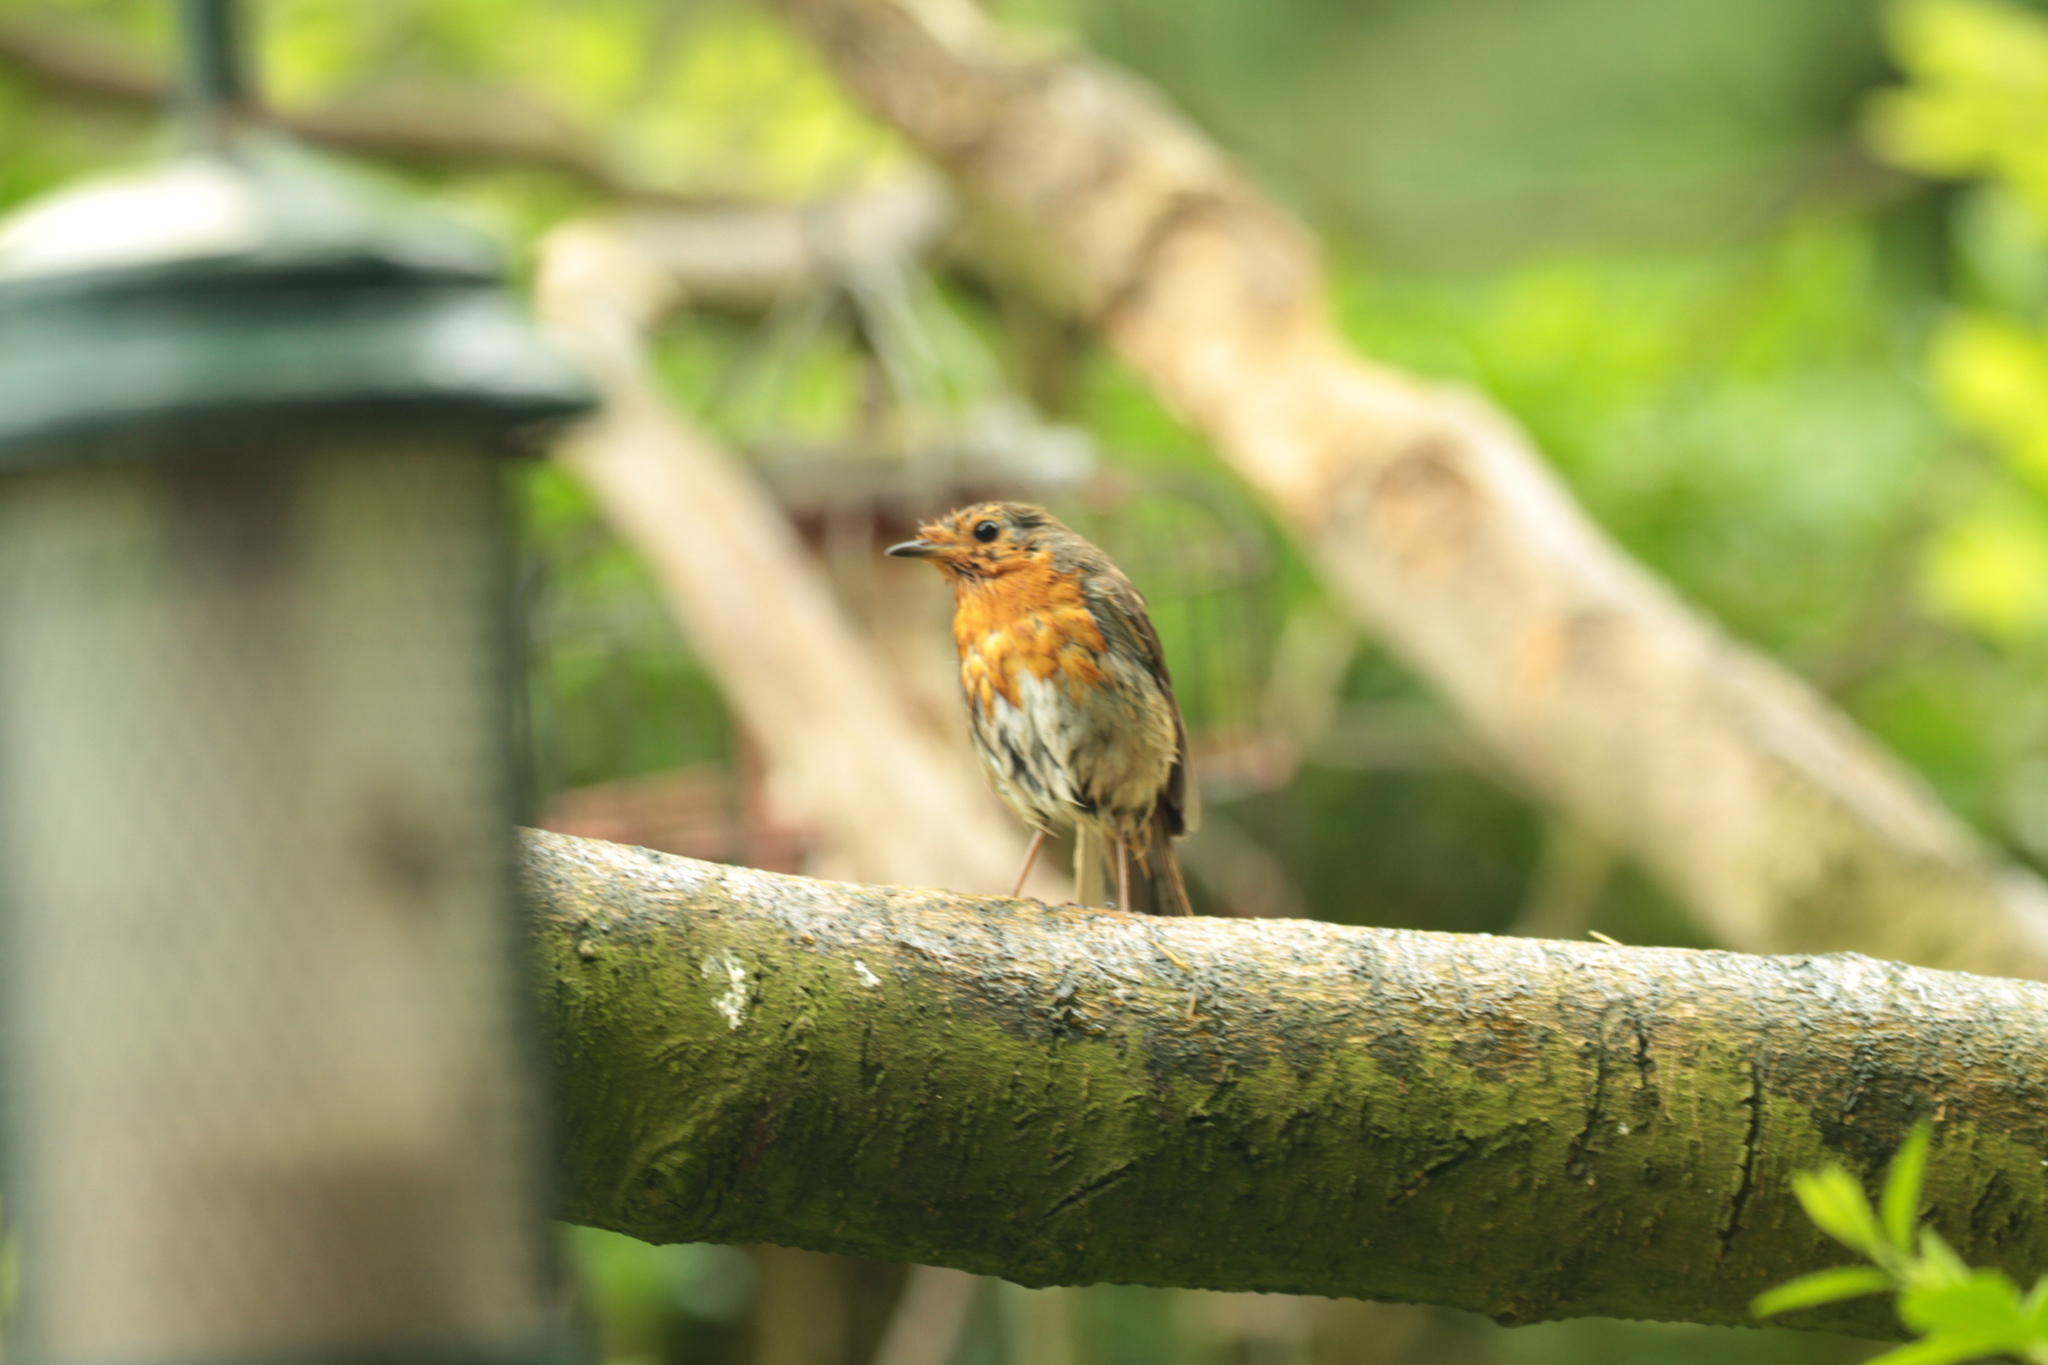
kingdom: Animalia
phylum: Chordata
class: Aves
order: Passeriformes
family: Muscicapidae
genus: Erithacus
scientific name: Erithacus rubecula
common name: European robin
